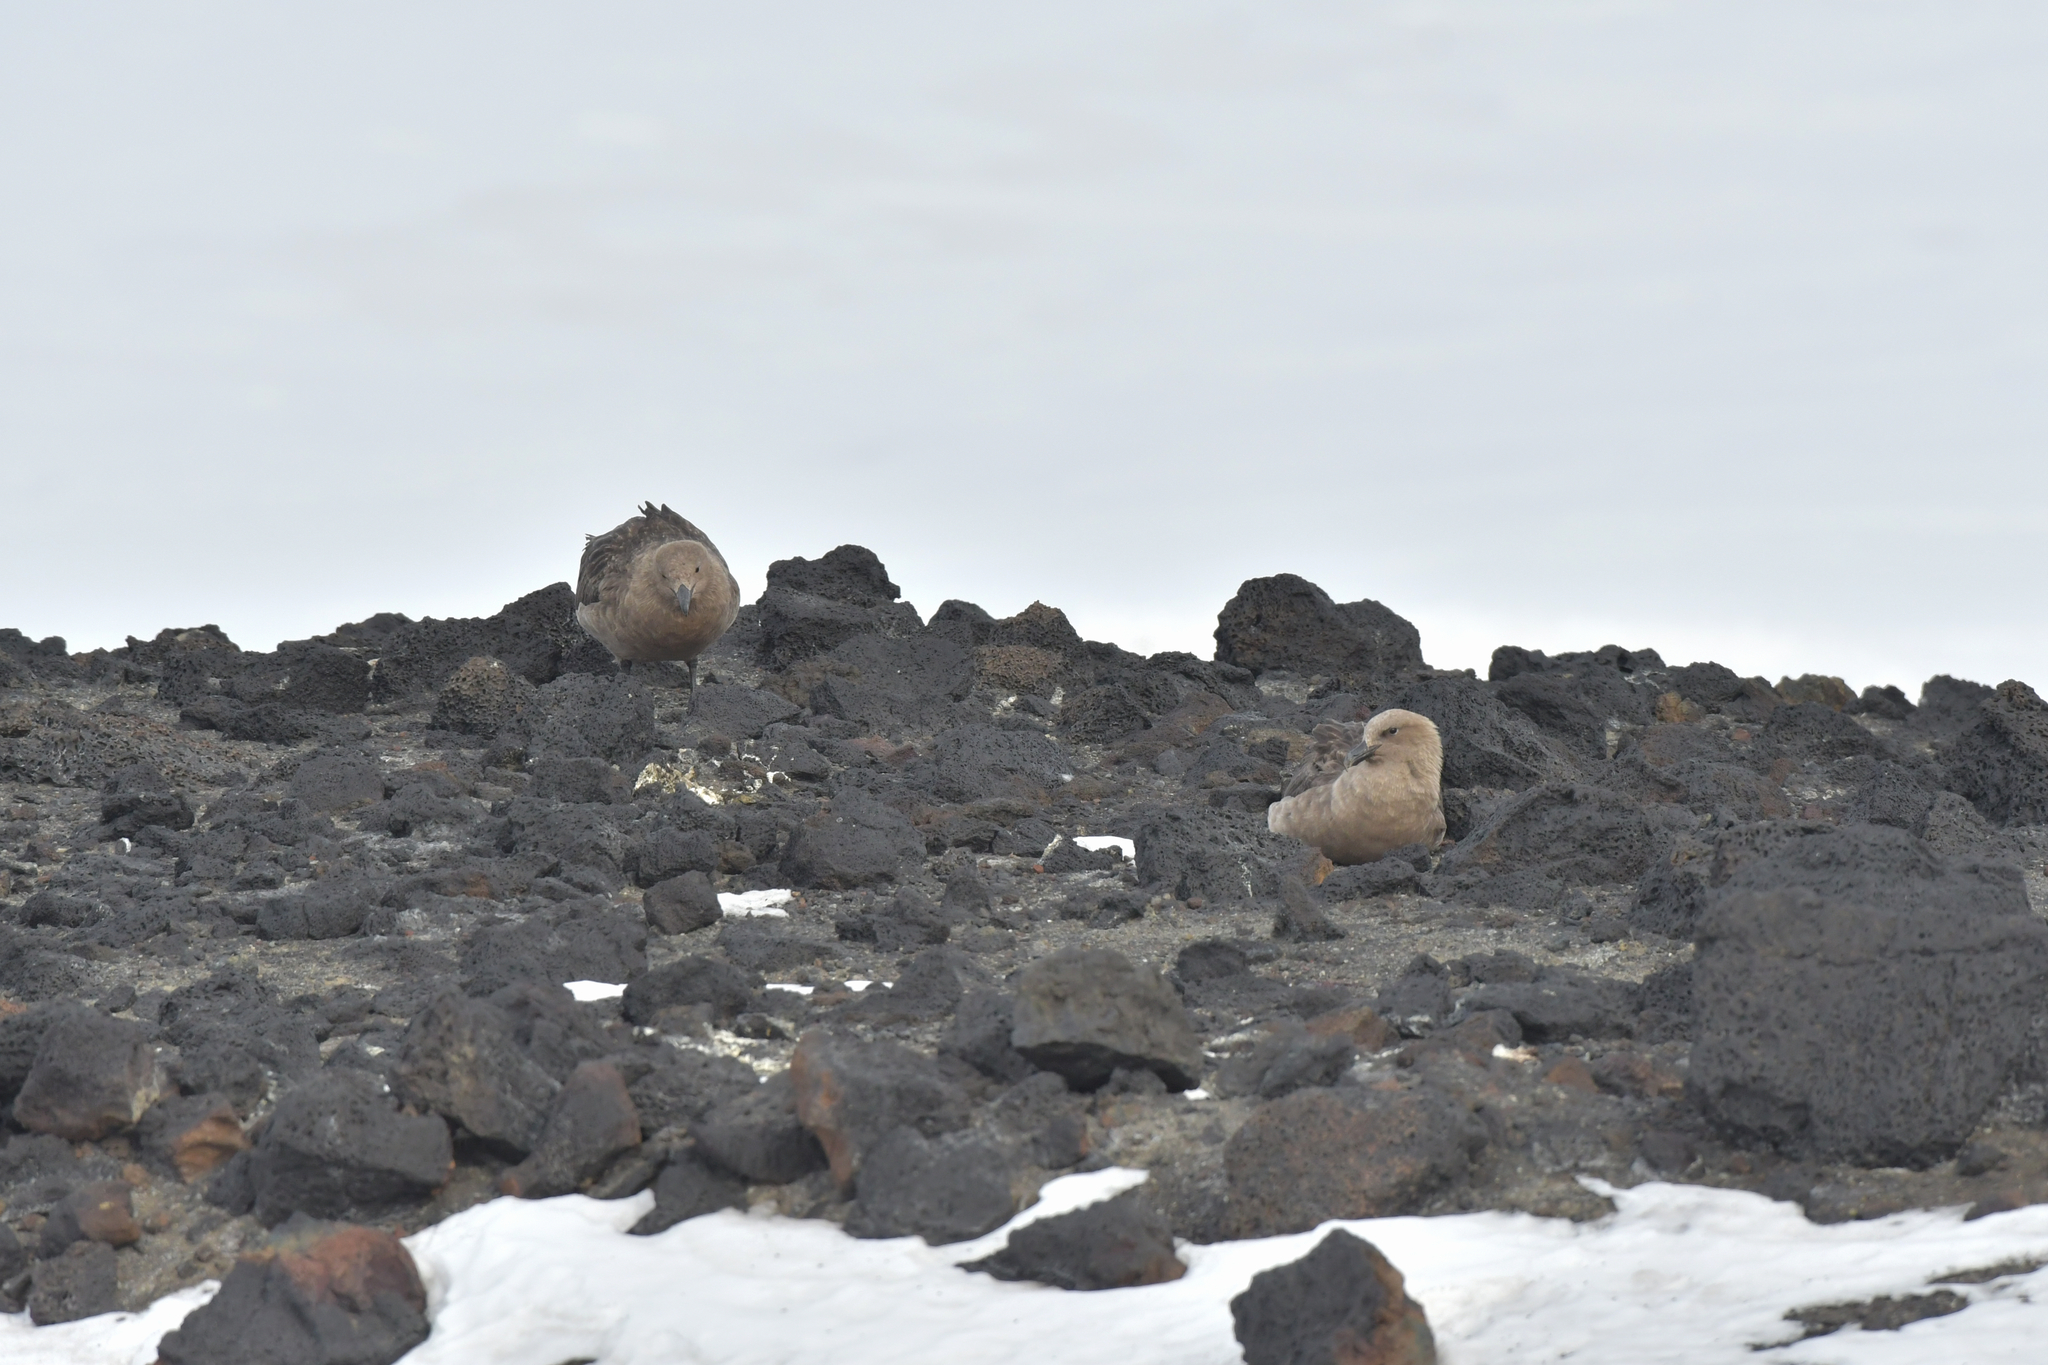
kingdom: Animalia
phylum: Chordata
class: Aves
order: Charadriiformes
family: Stercorariidae
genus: Stercorarius
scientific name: Stercorarius maccormicki
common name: South polar skua
